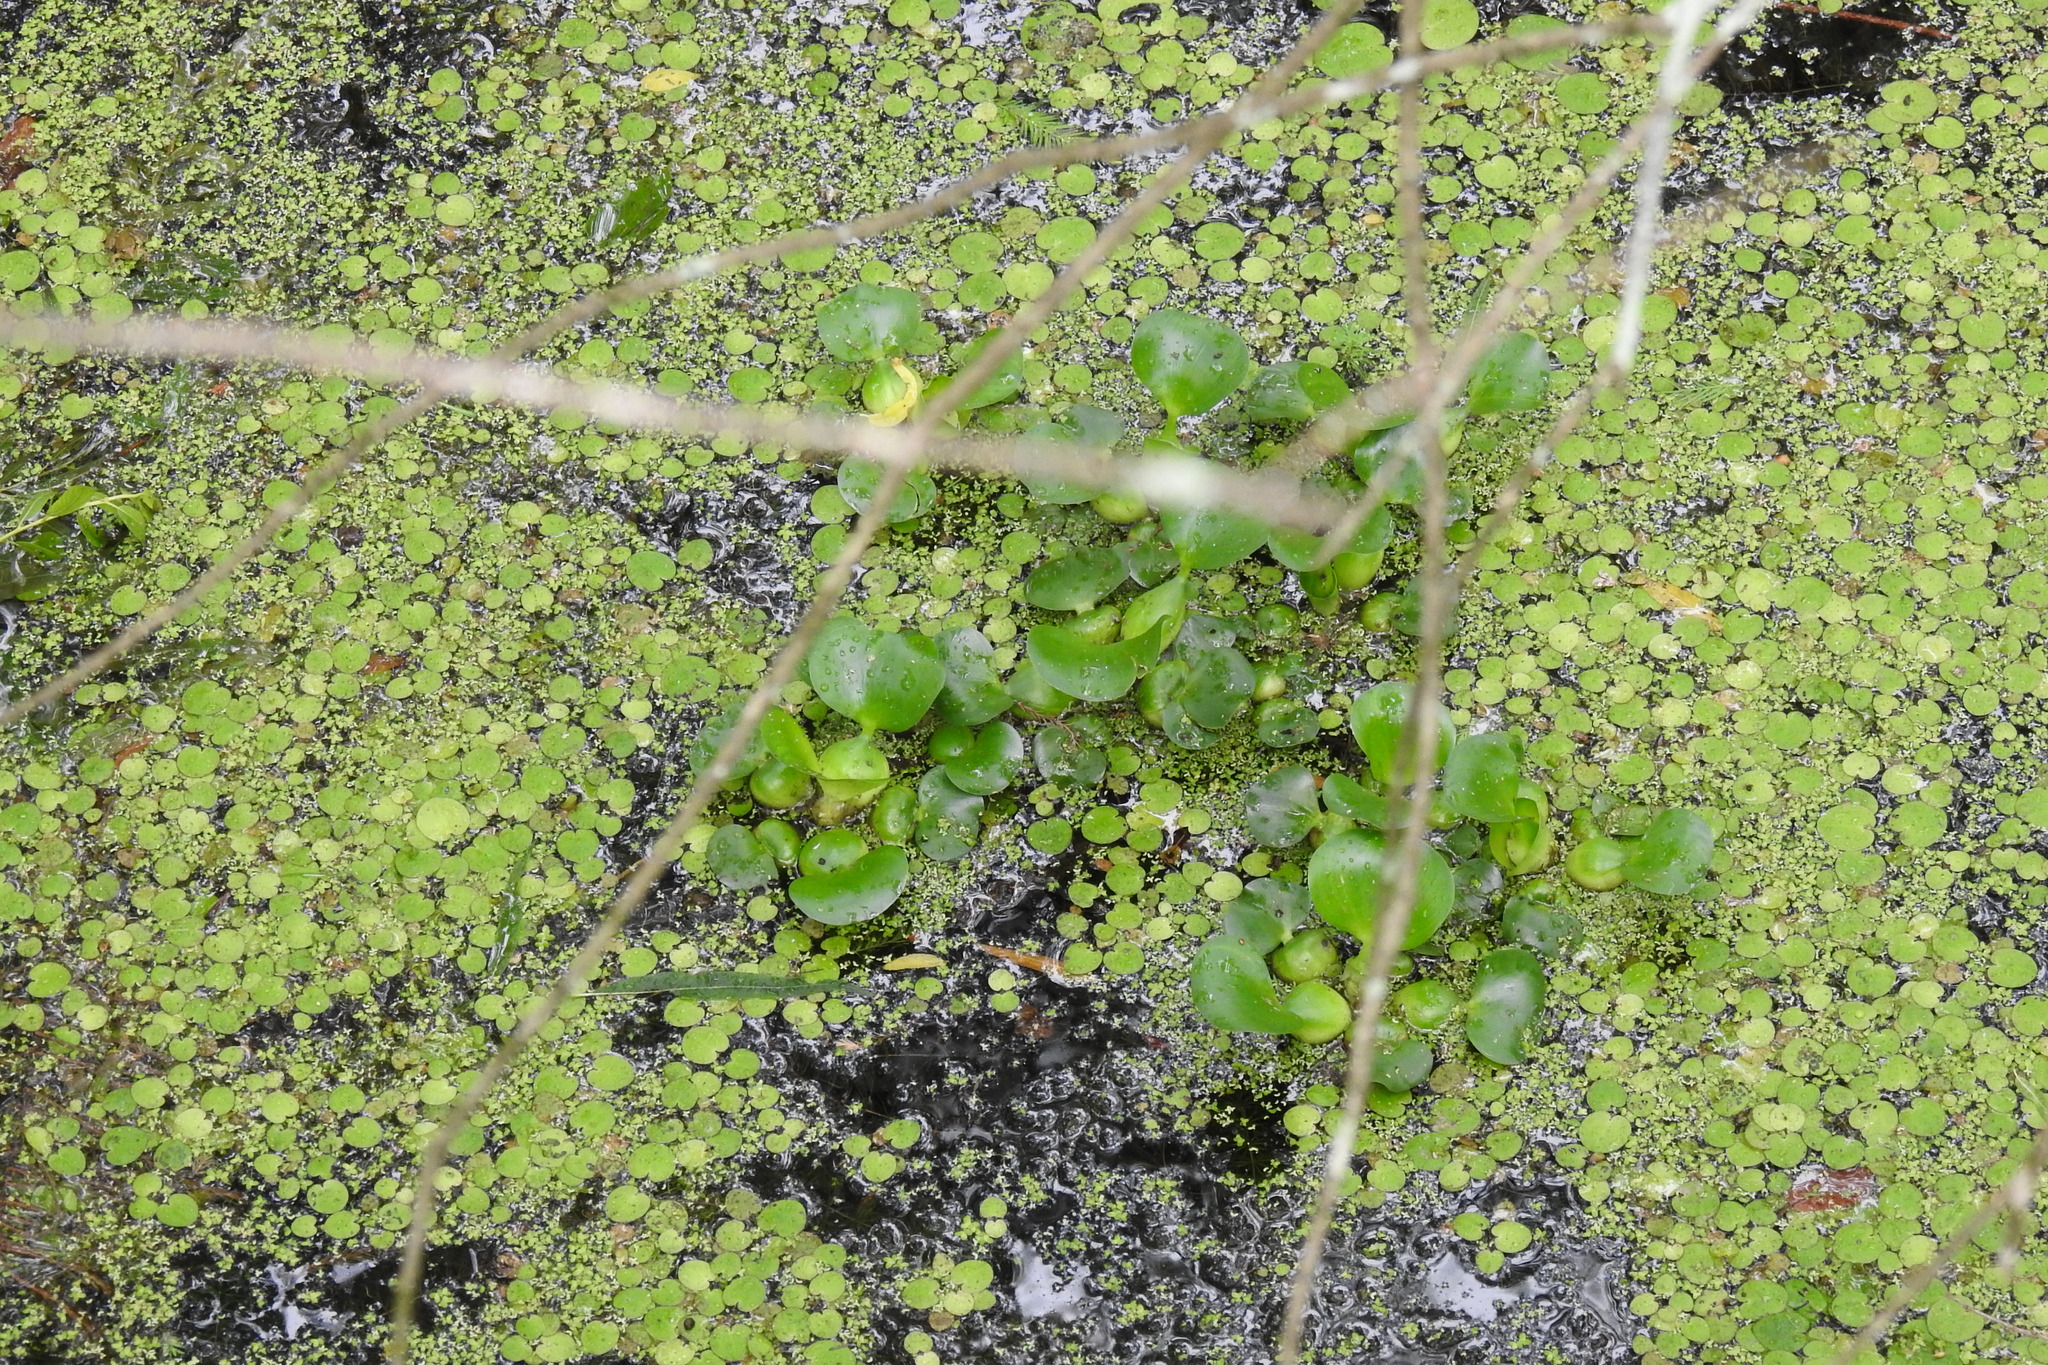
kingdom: Plantae
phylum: Tracheophyta
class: Liliopsida
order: Commelinales
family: Pontederiaceae
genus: Pontederia
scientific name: Pontederia crassipes
